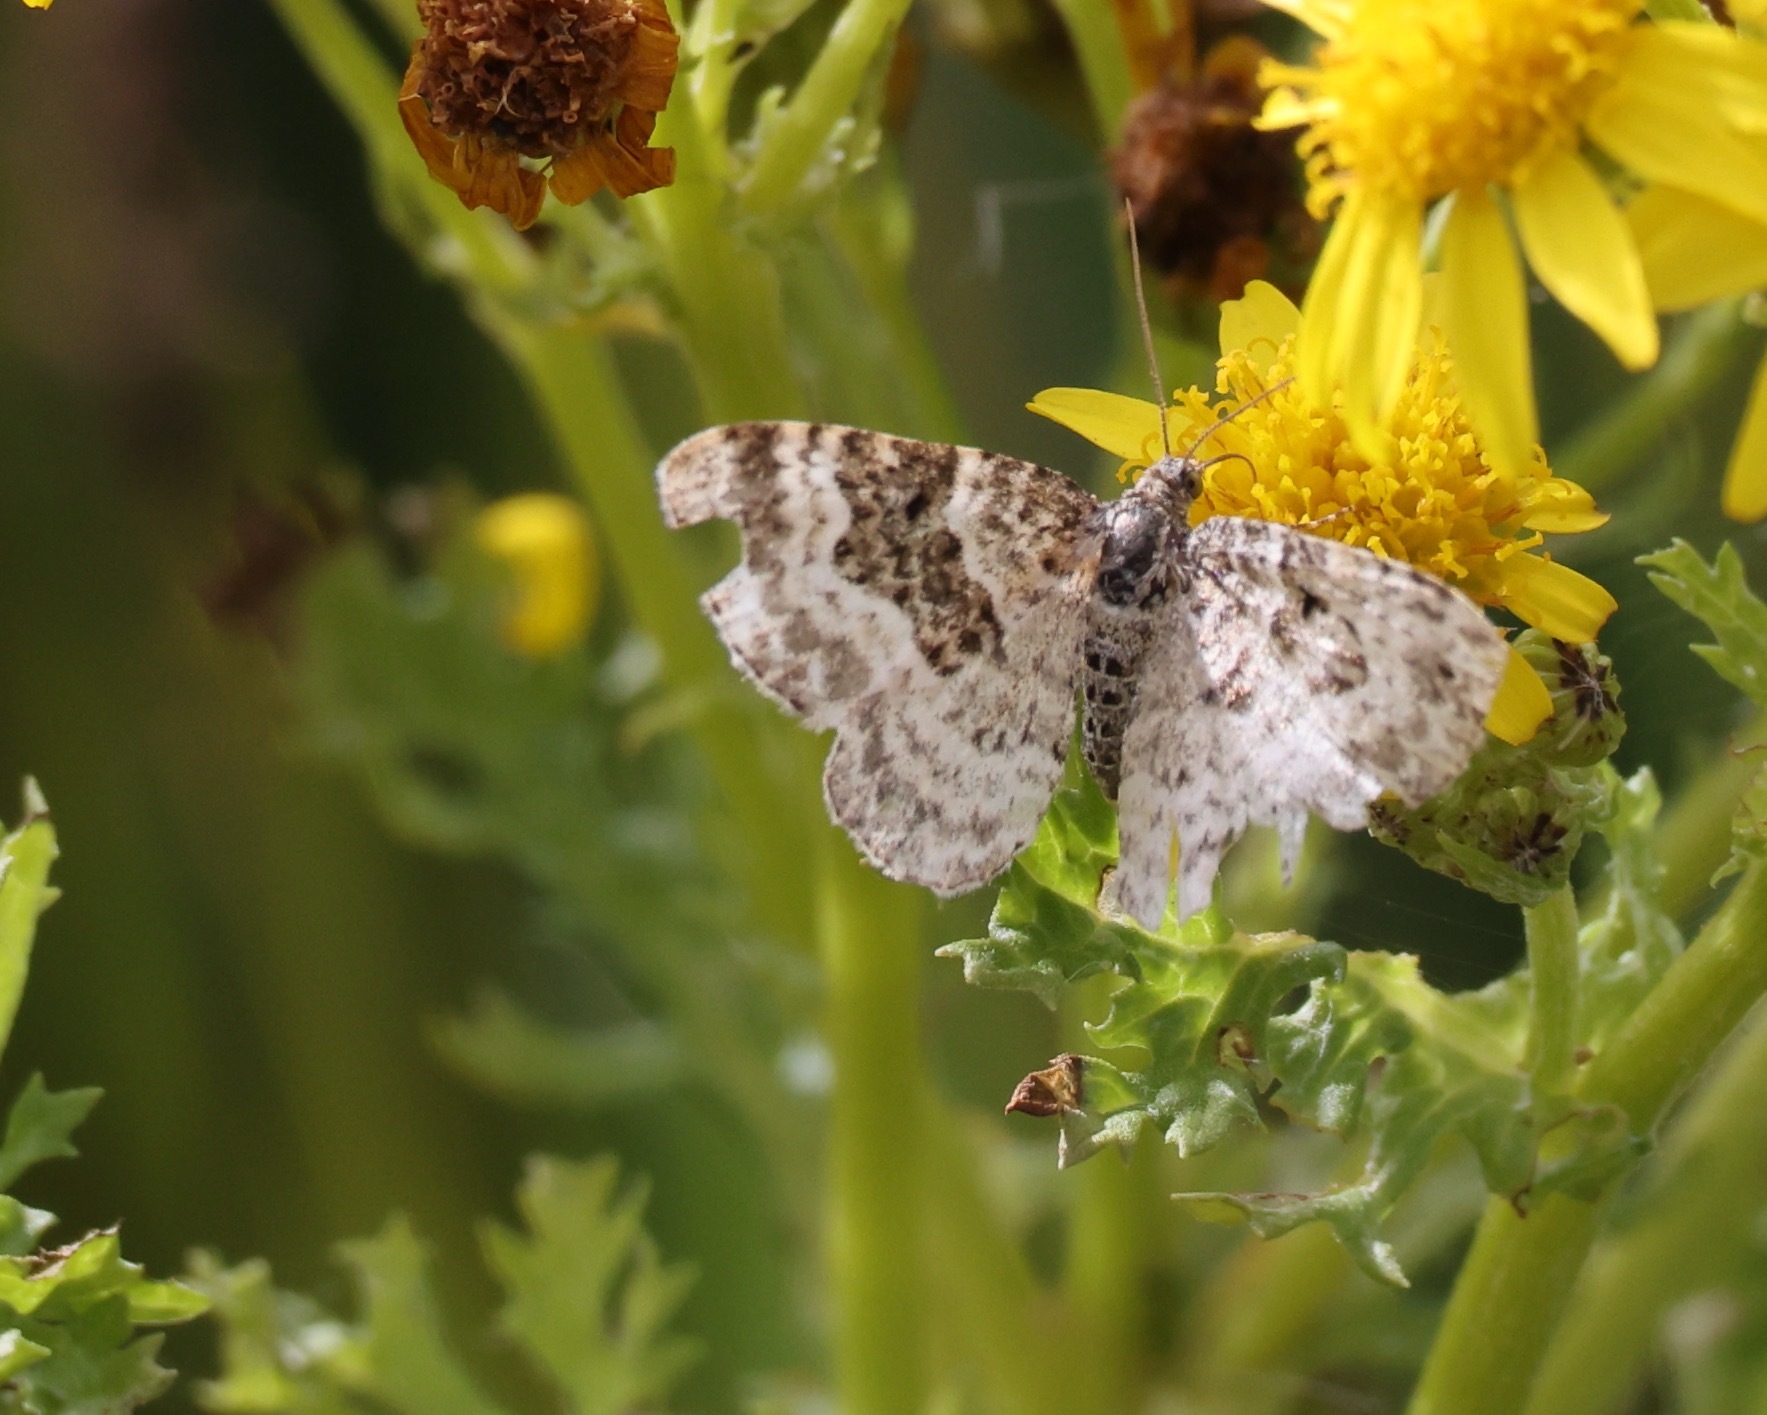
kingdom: Animalia
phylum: Arthropoda
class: Insecta
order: Lepidoptera
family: Geometridae
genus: Epirrhoe
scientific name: Epirrhoe alternata
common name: Common carpet
